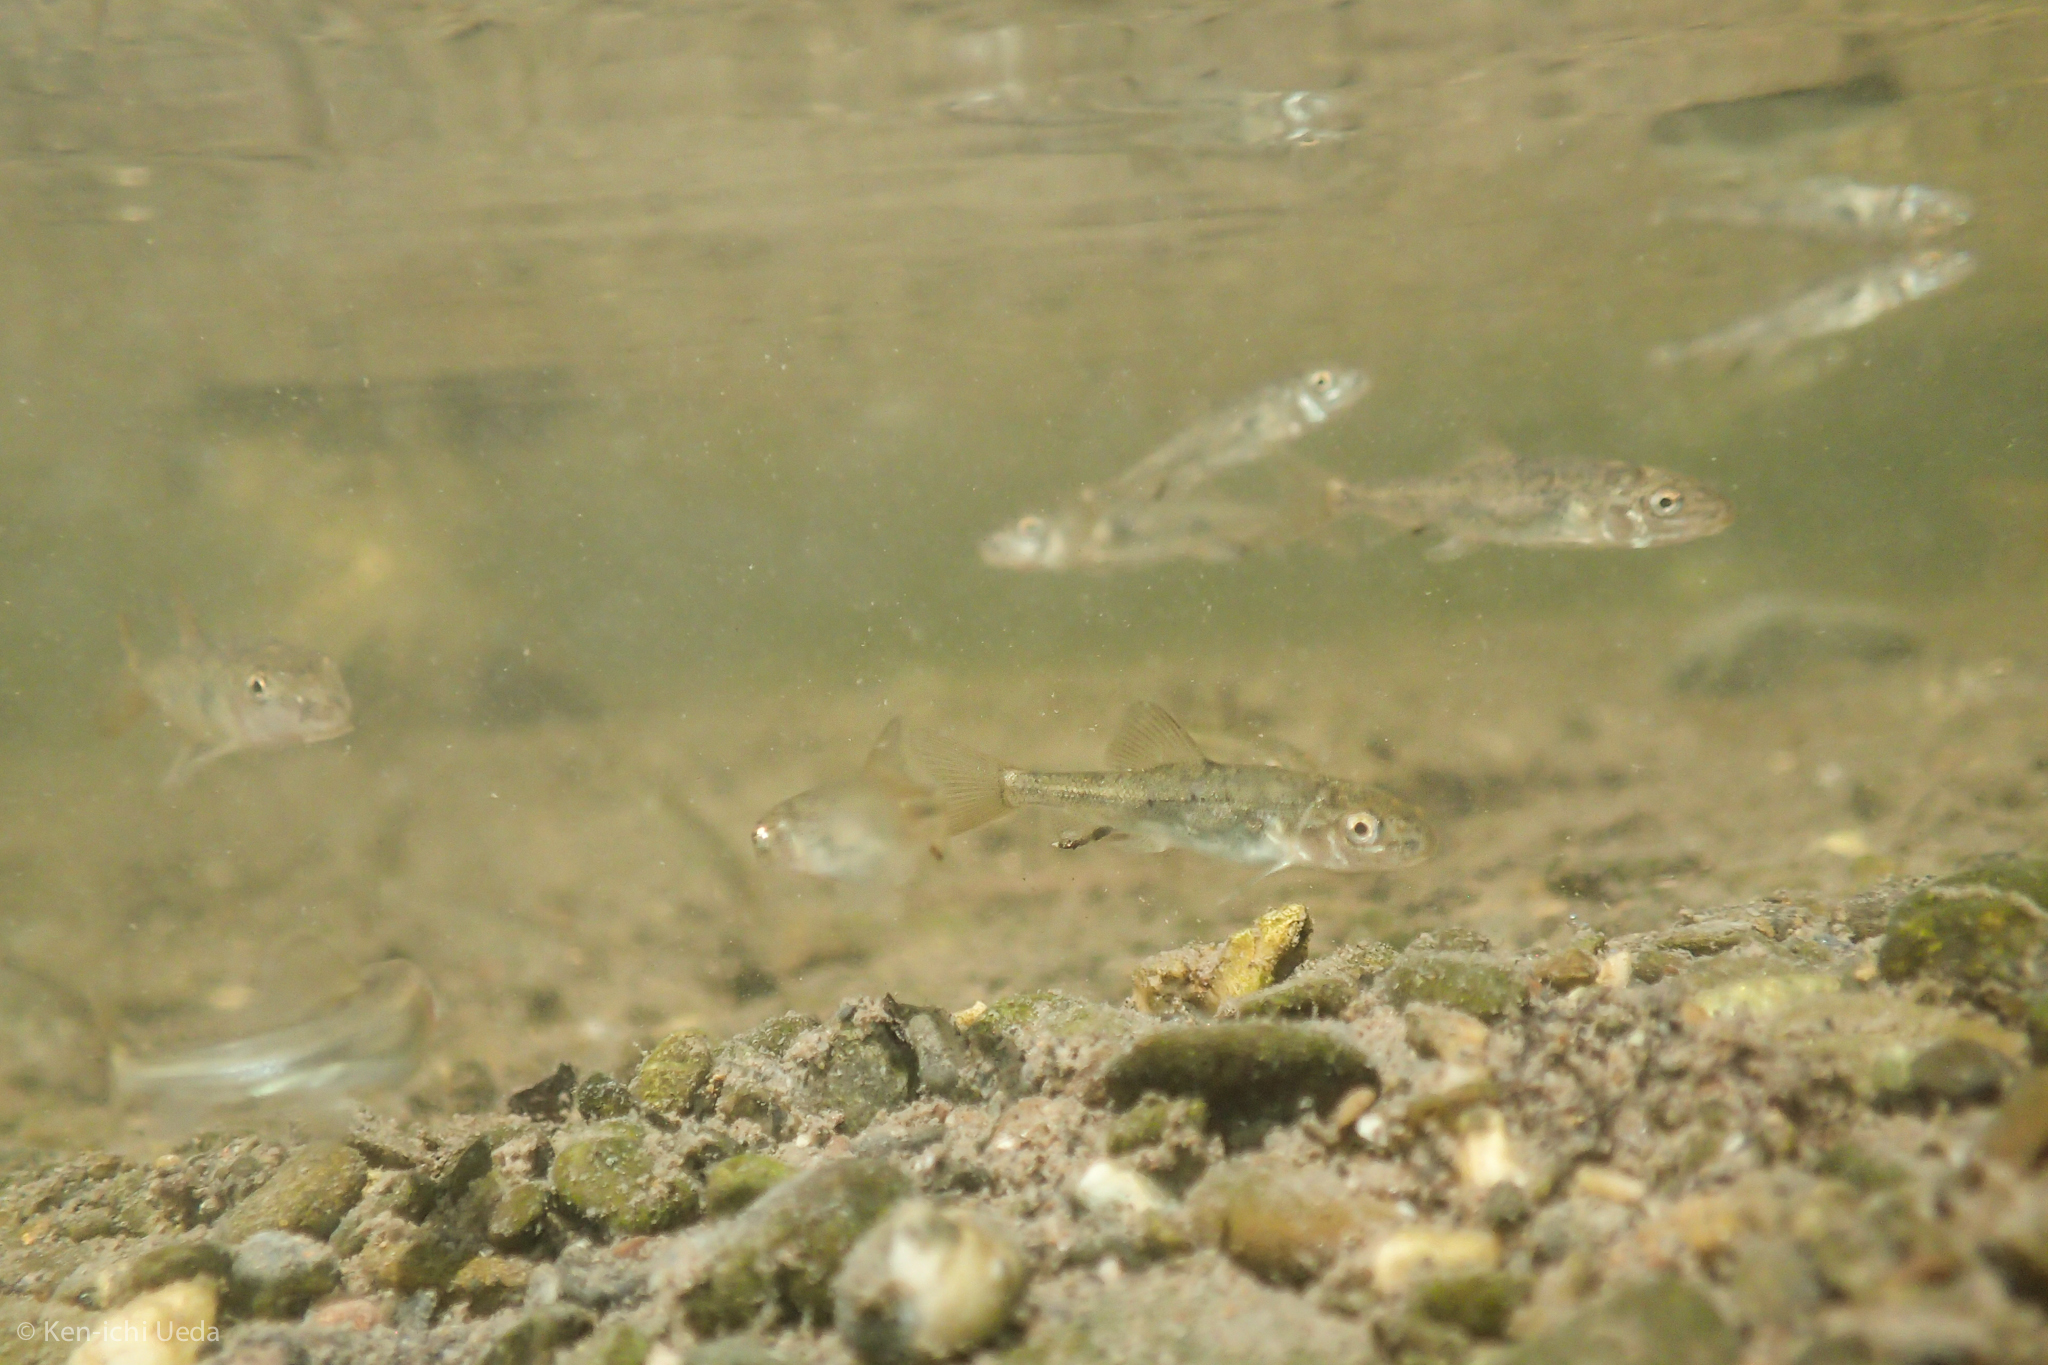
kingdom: Animalia
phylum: Chordata
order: Cypriniformes
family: Catostomidae
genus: Catostomus
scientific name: Catostomus occidentalis
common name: Goose lake sucker
